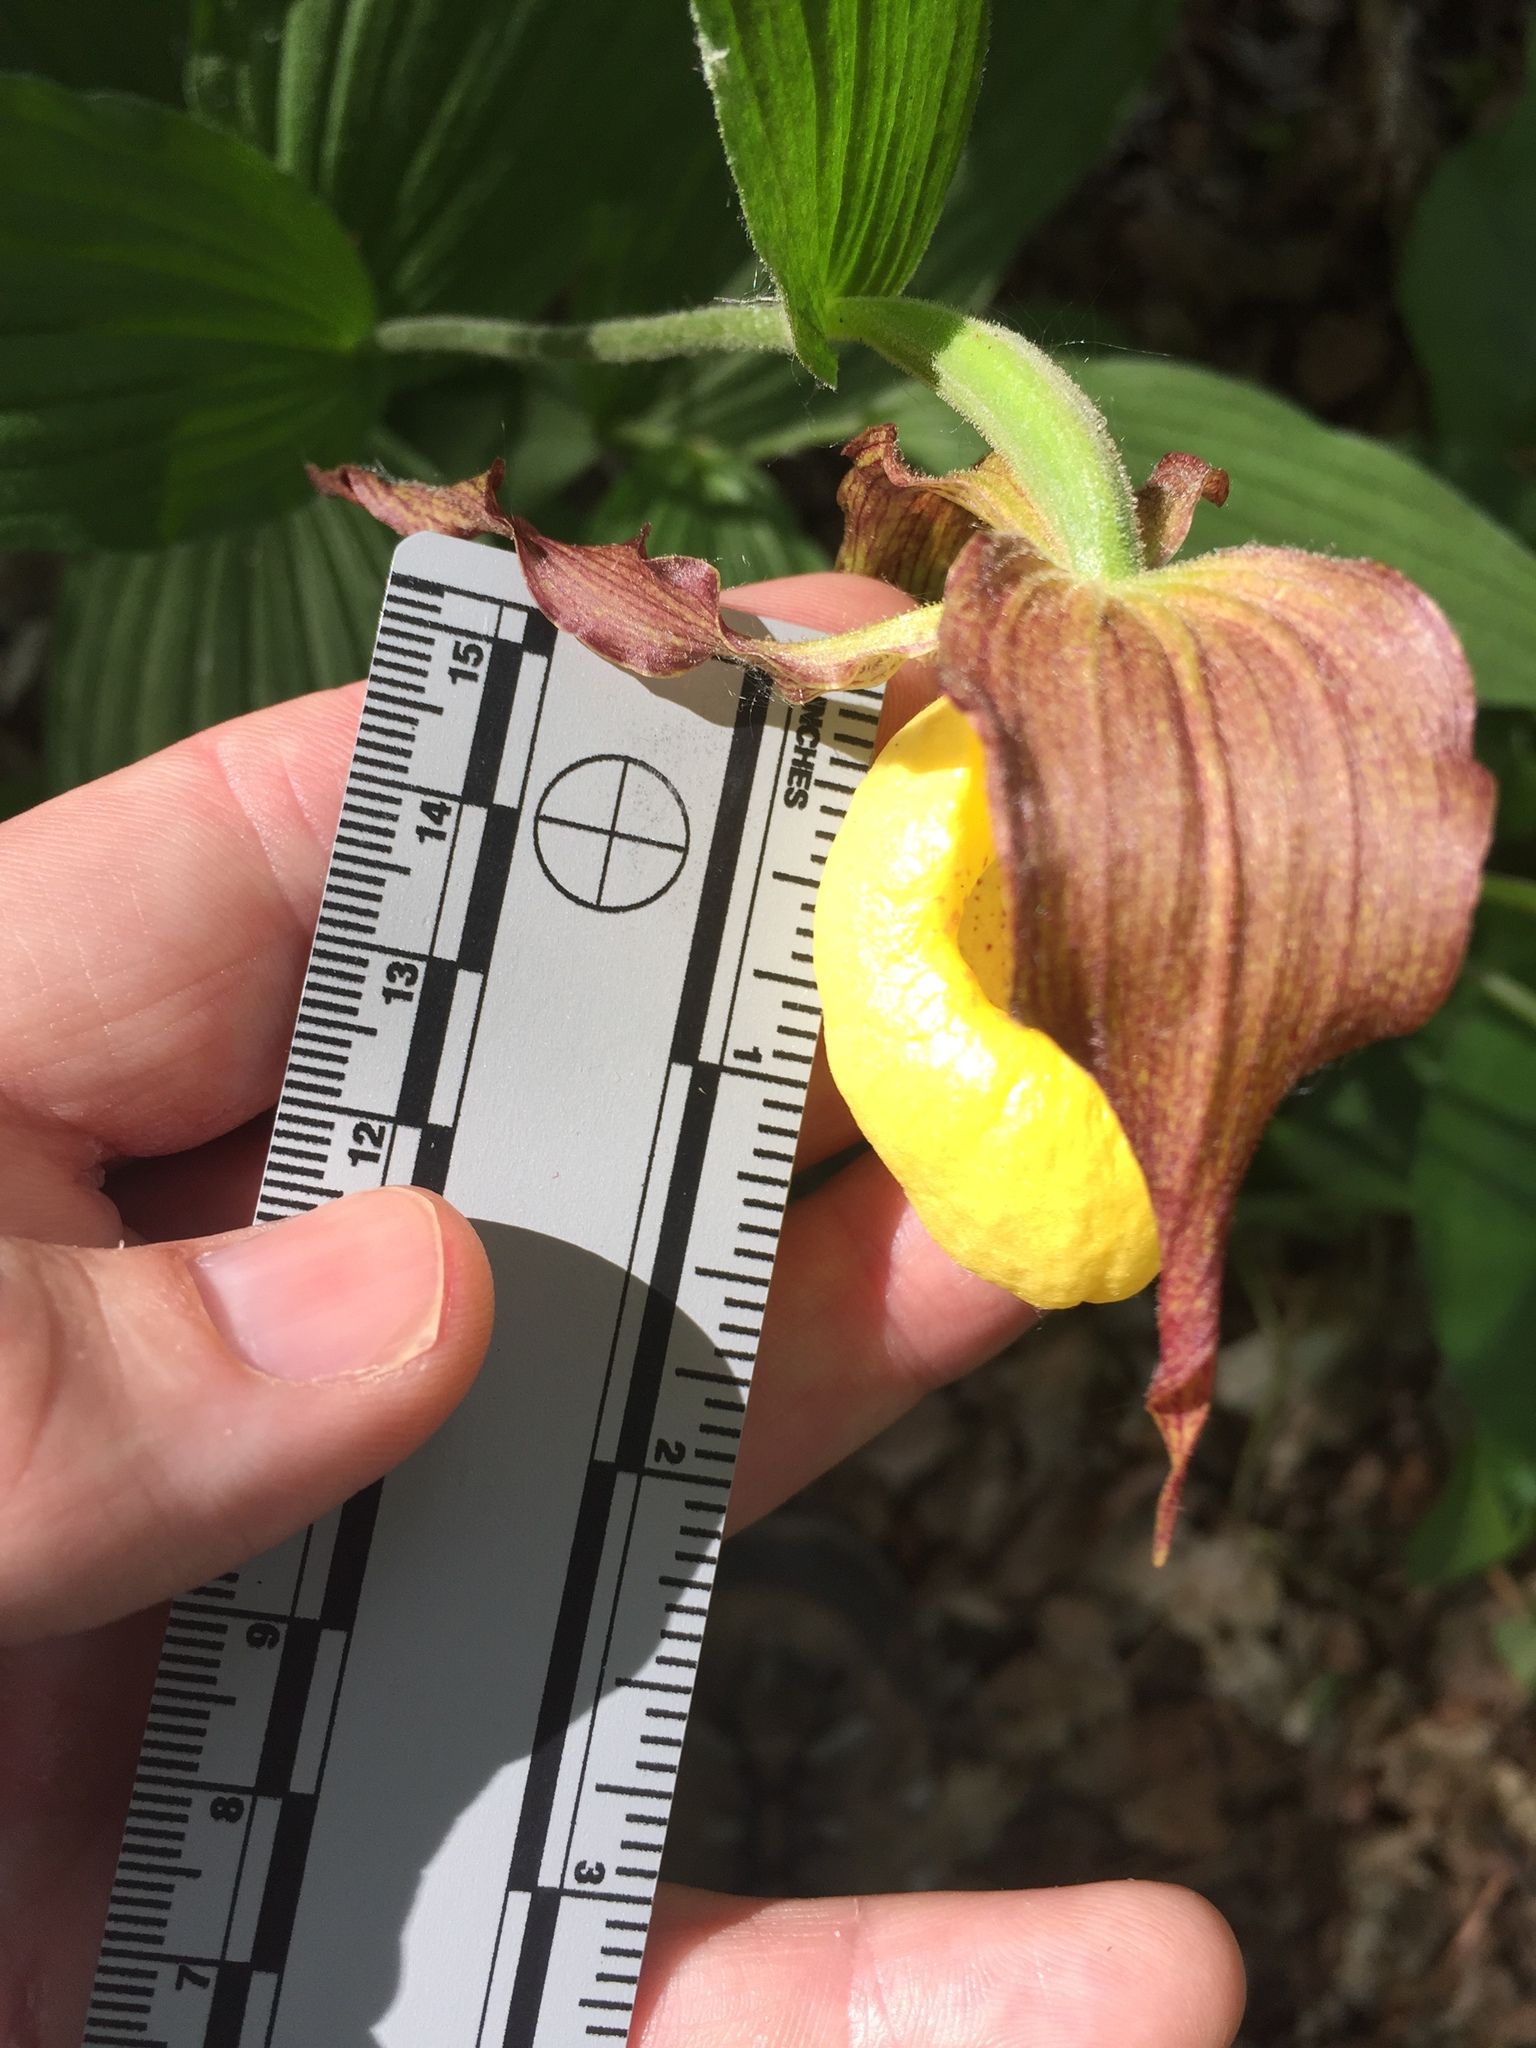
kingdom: Plantae
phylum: Tracheophyta
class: Liliopsida
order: Asparagales
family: Orchidaceae
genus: Cypripedium
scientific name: Cypripedium parviflorum
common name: American yellow lady's-slipper
